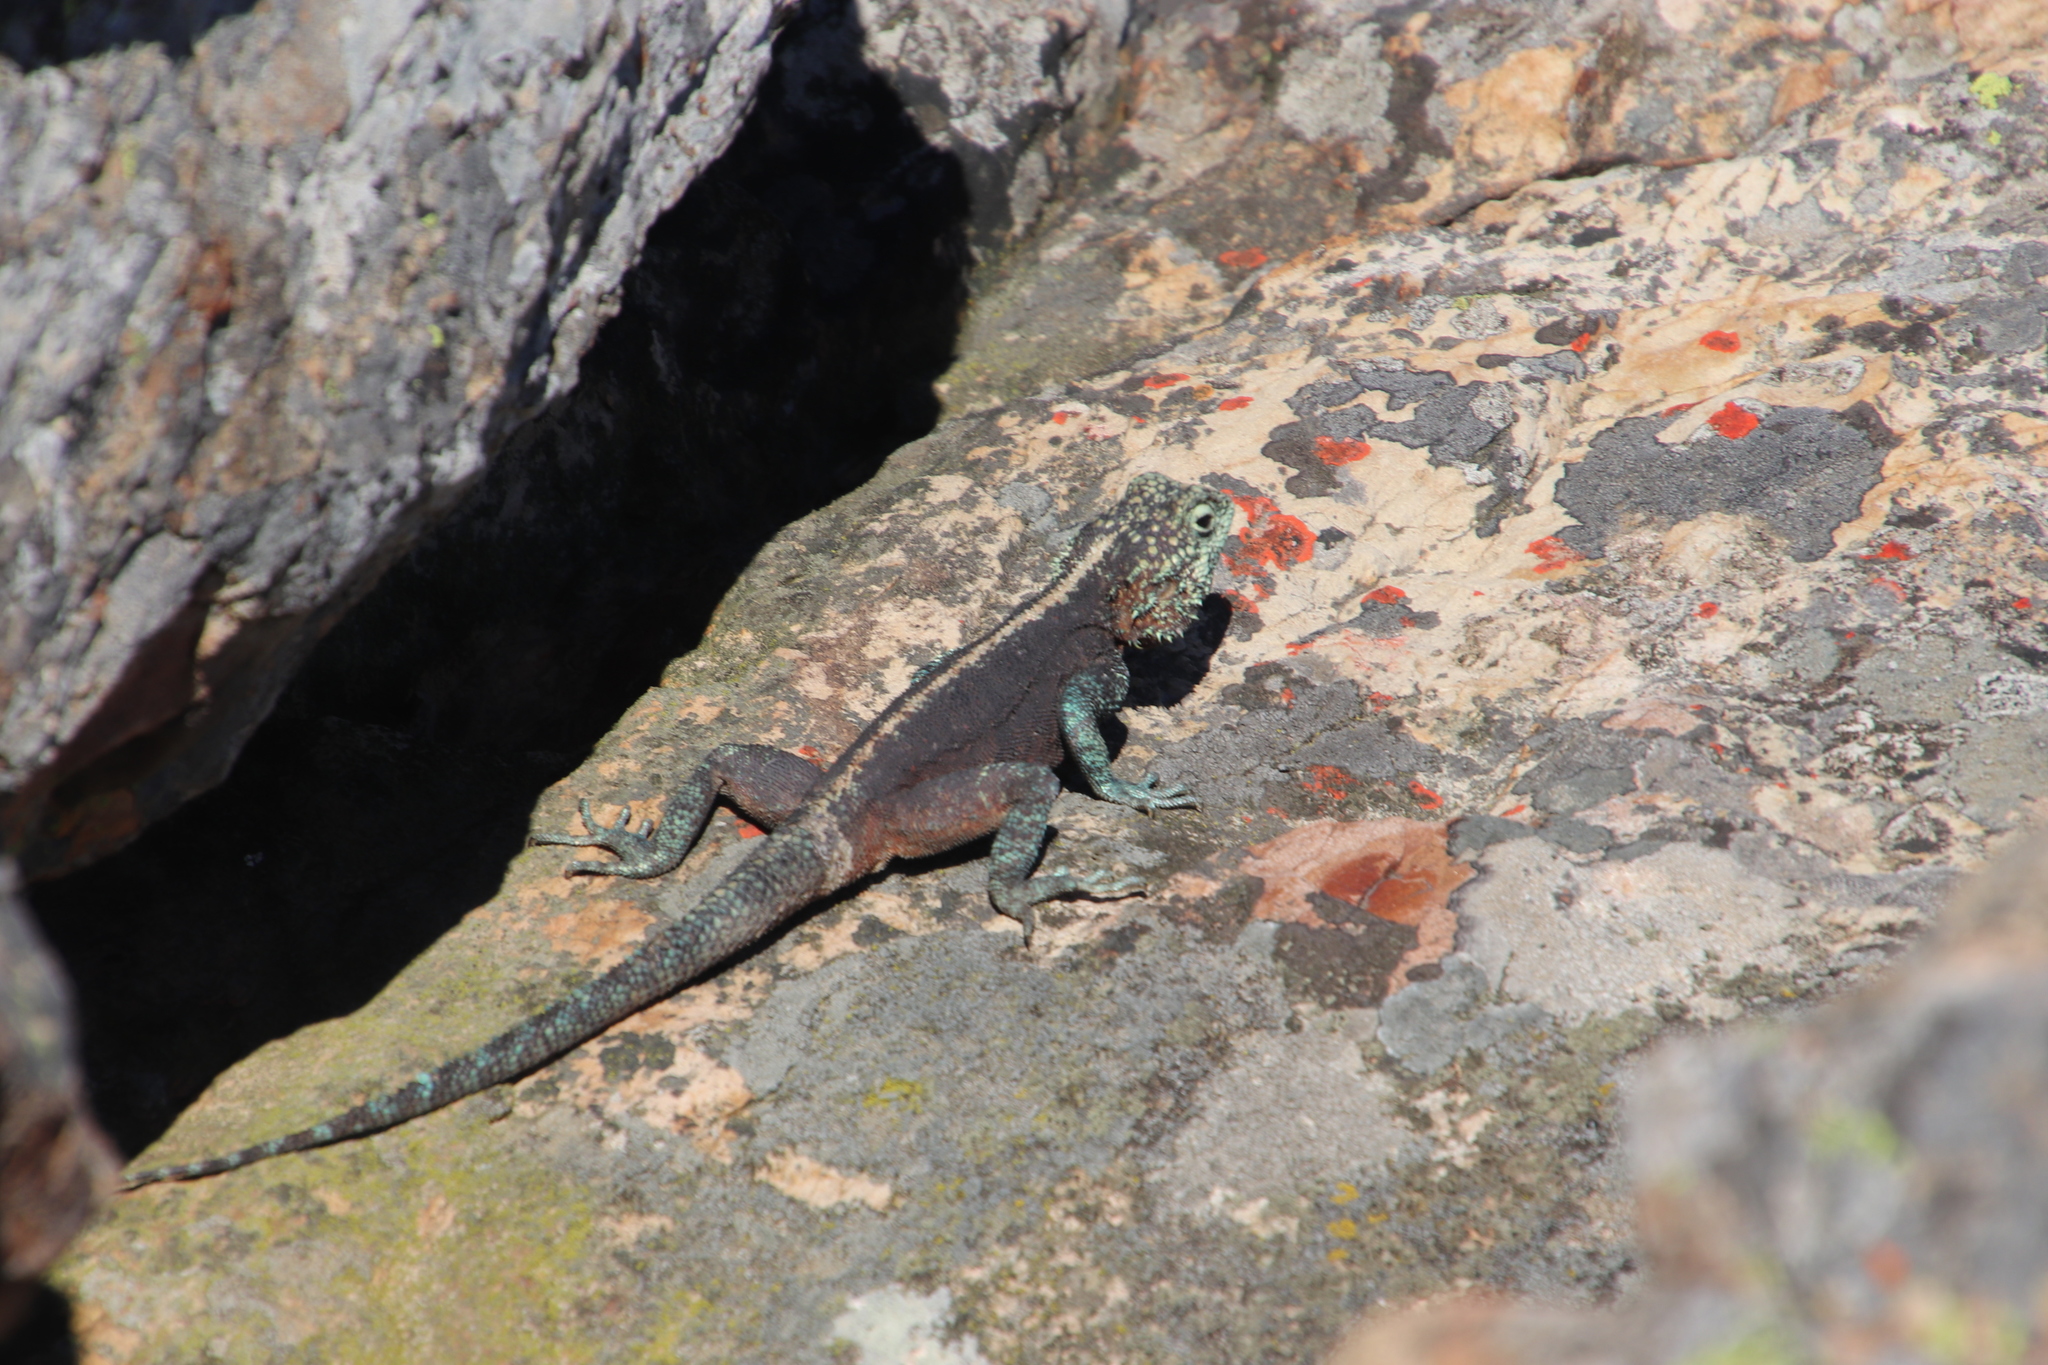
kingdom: Animalia
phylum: Chordata
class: Squamata
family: Agamidae
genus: Agama
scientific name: Agama atra
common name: Southern african rock agama
